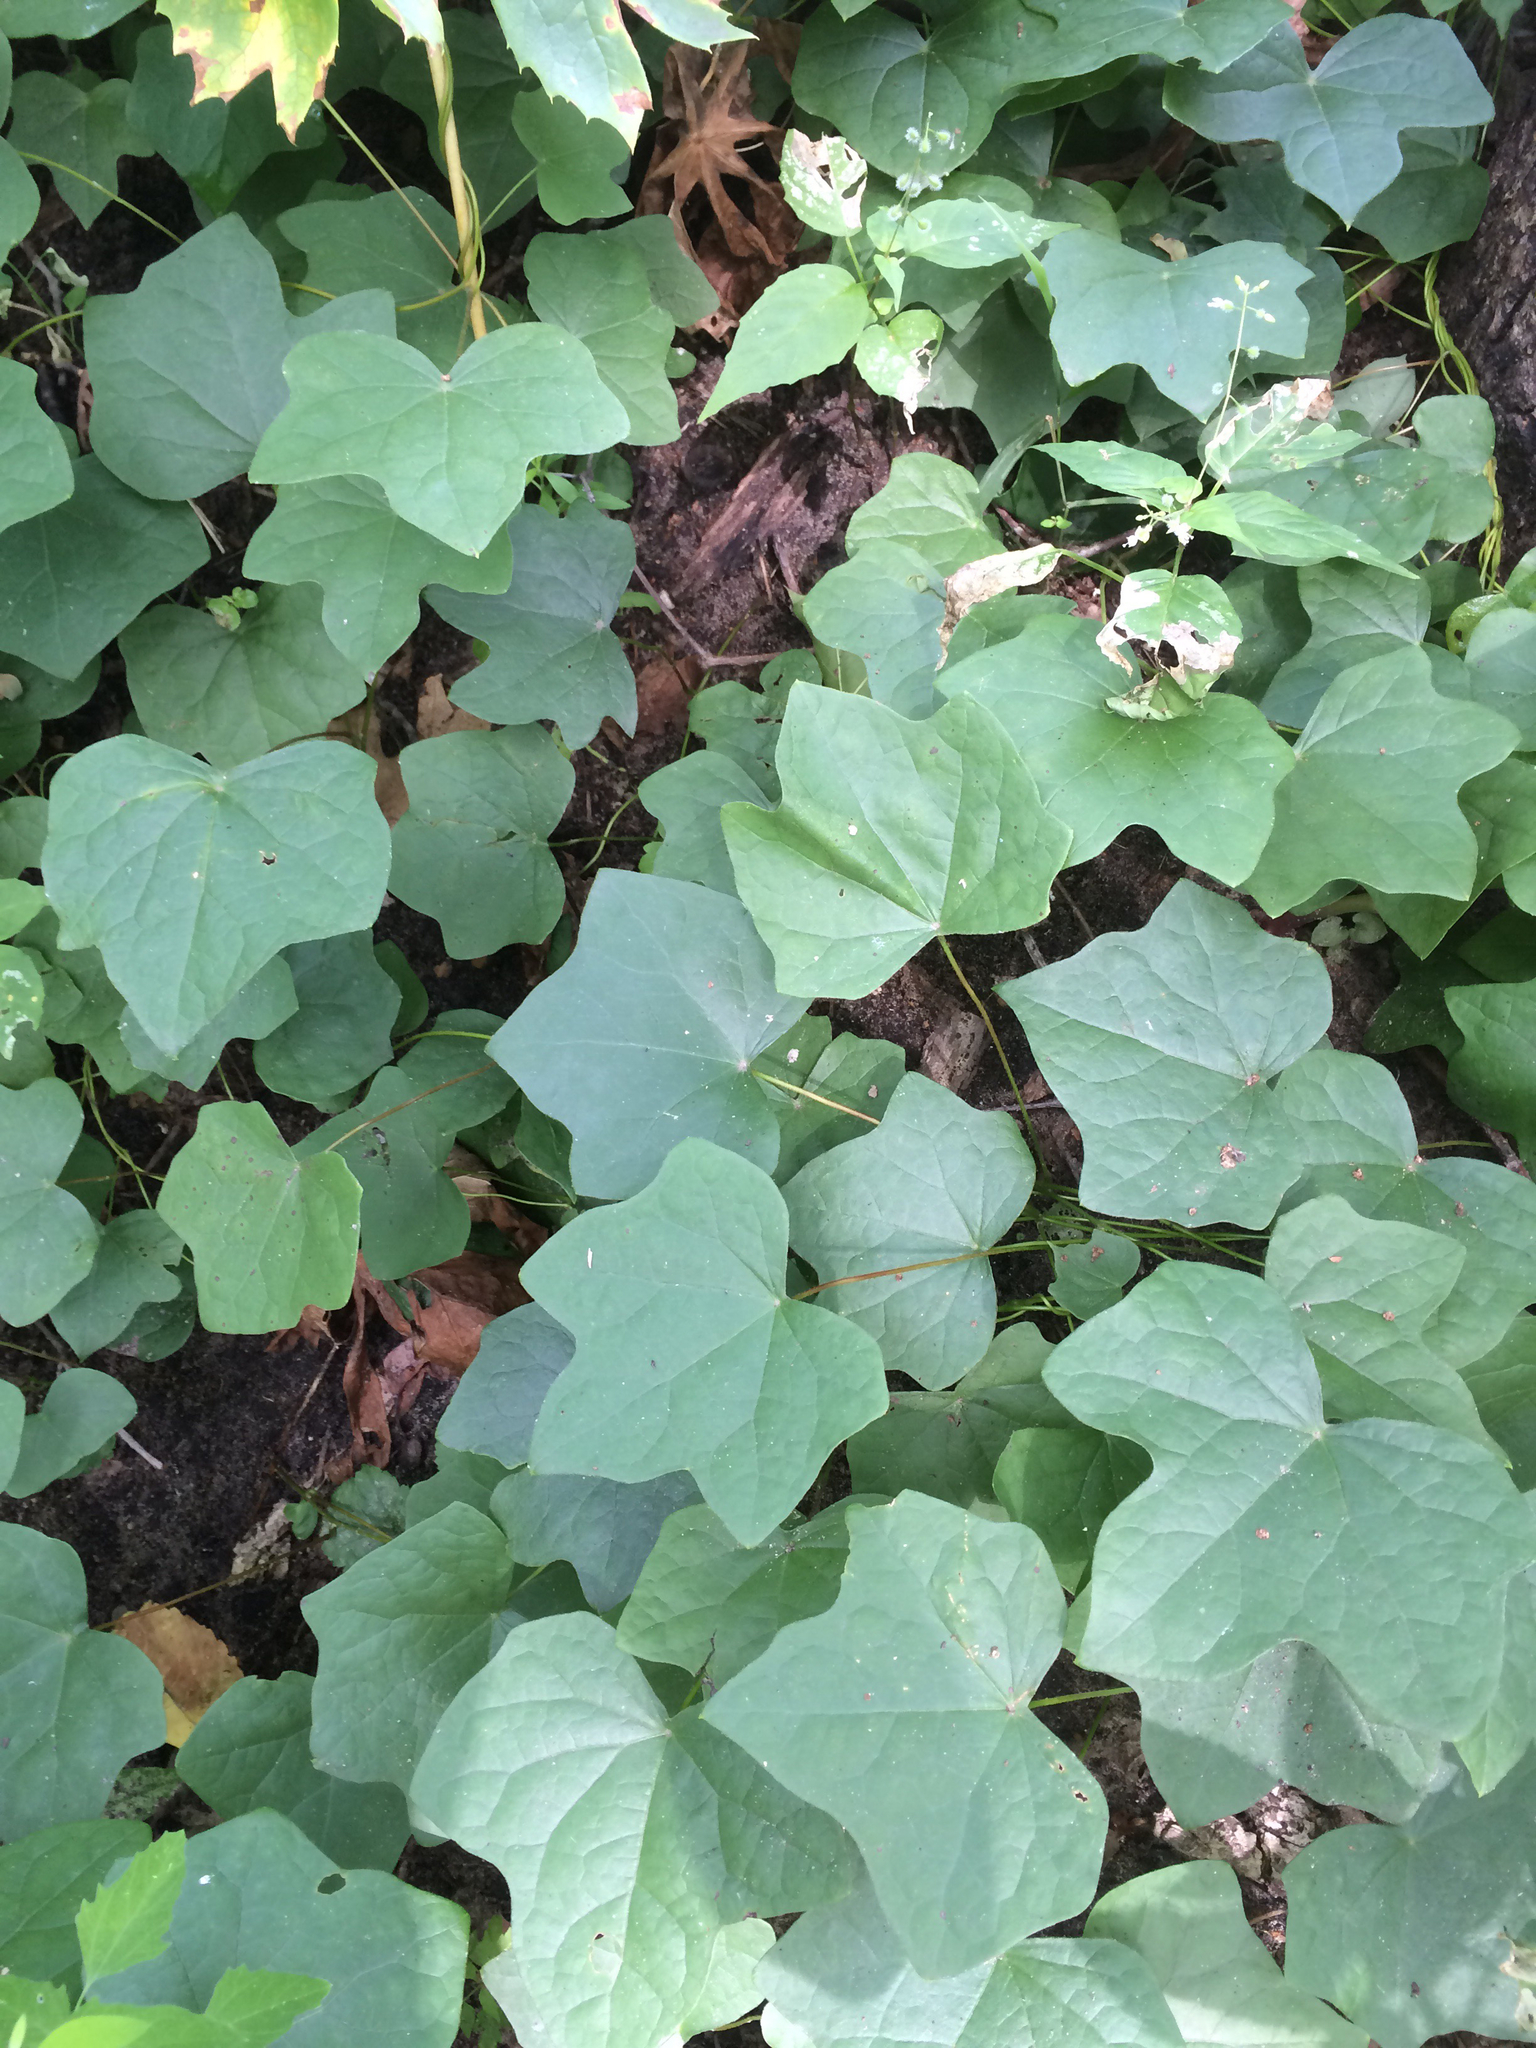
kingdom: Plantae
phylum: Tracheophyta
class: Magnoliopsida
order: Ranunculales
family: Menispermaceae
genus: Menispermum
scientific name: Menispermum canadense
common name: Moonseed
